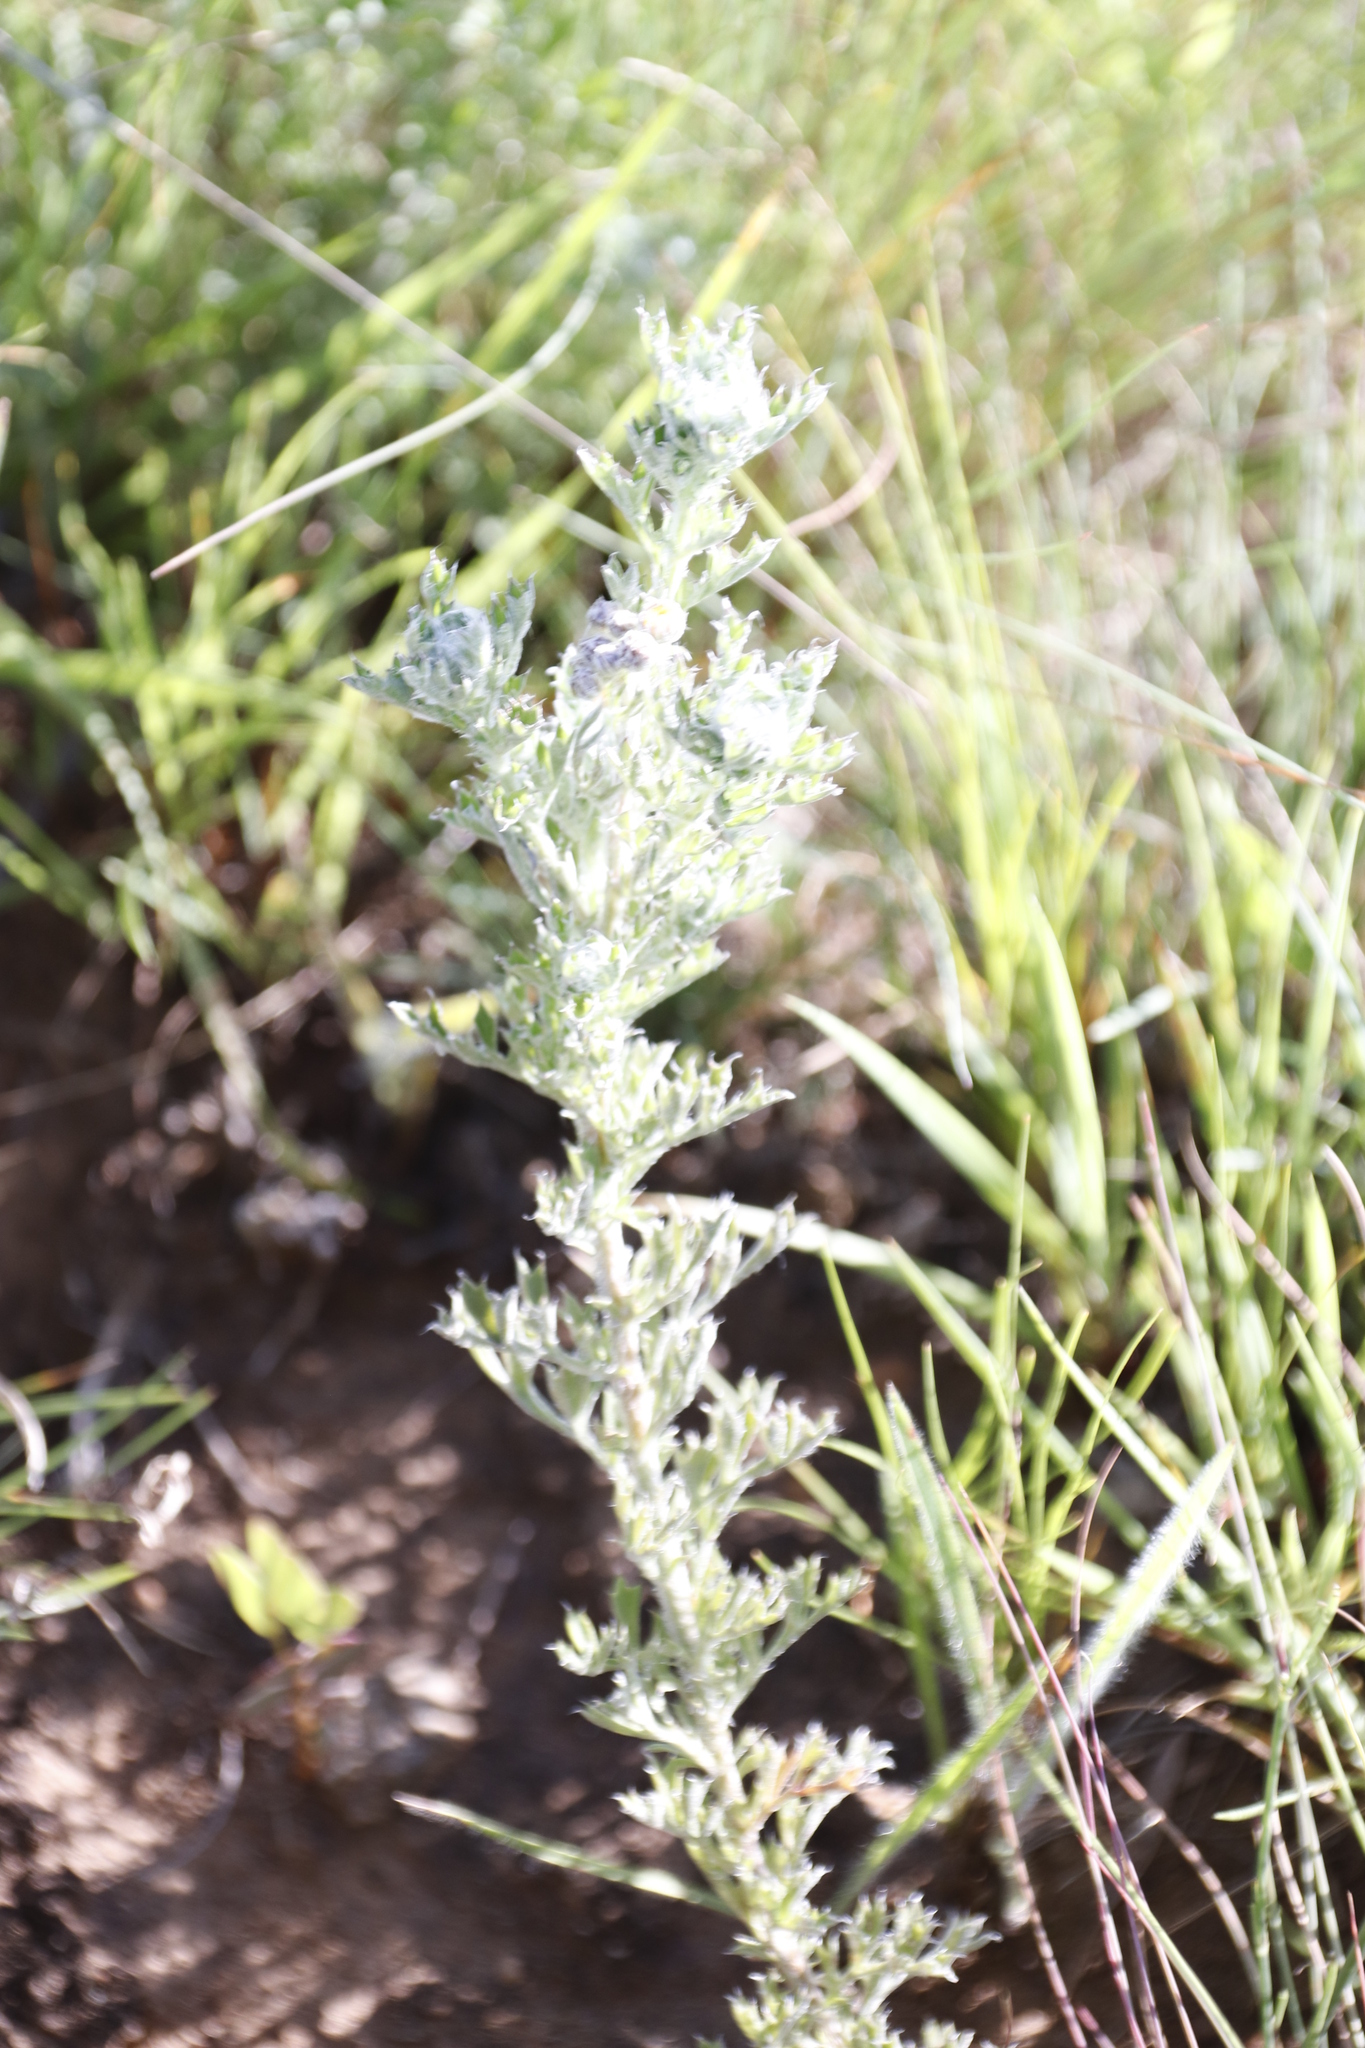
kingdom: Plantae
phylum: Tracheophyta
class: Magnoliopsida
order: Asterales
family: Asteraceae
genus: Schistostephium
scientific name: Schistostephium crataegifolium
